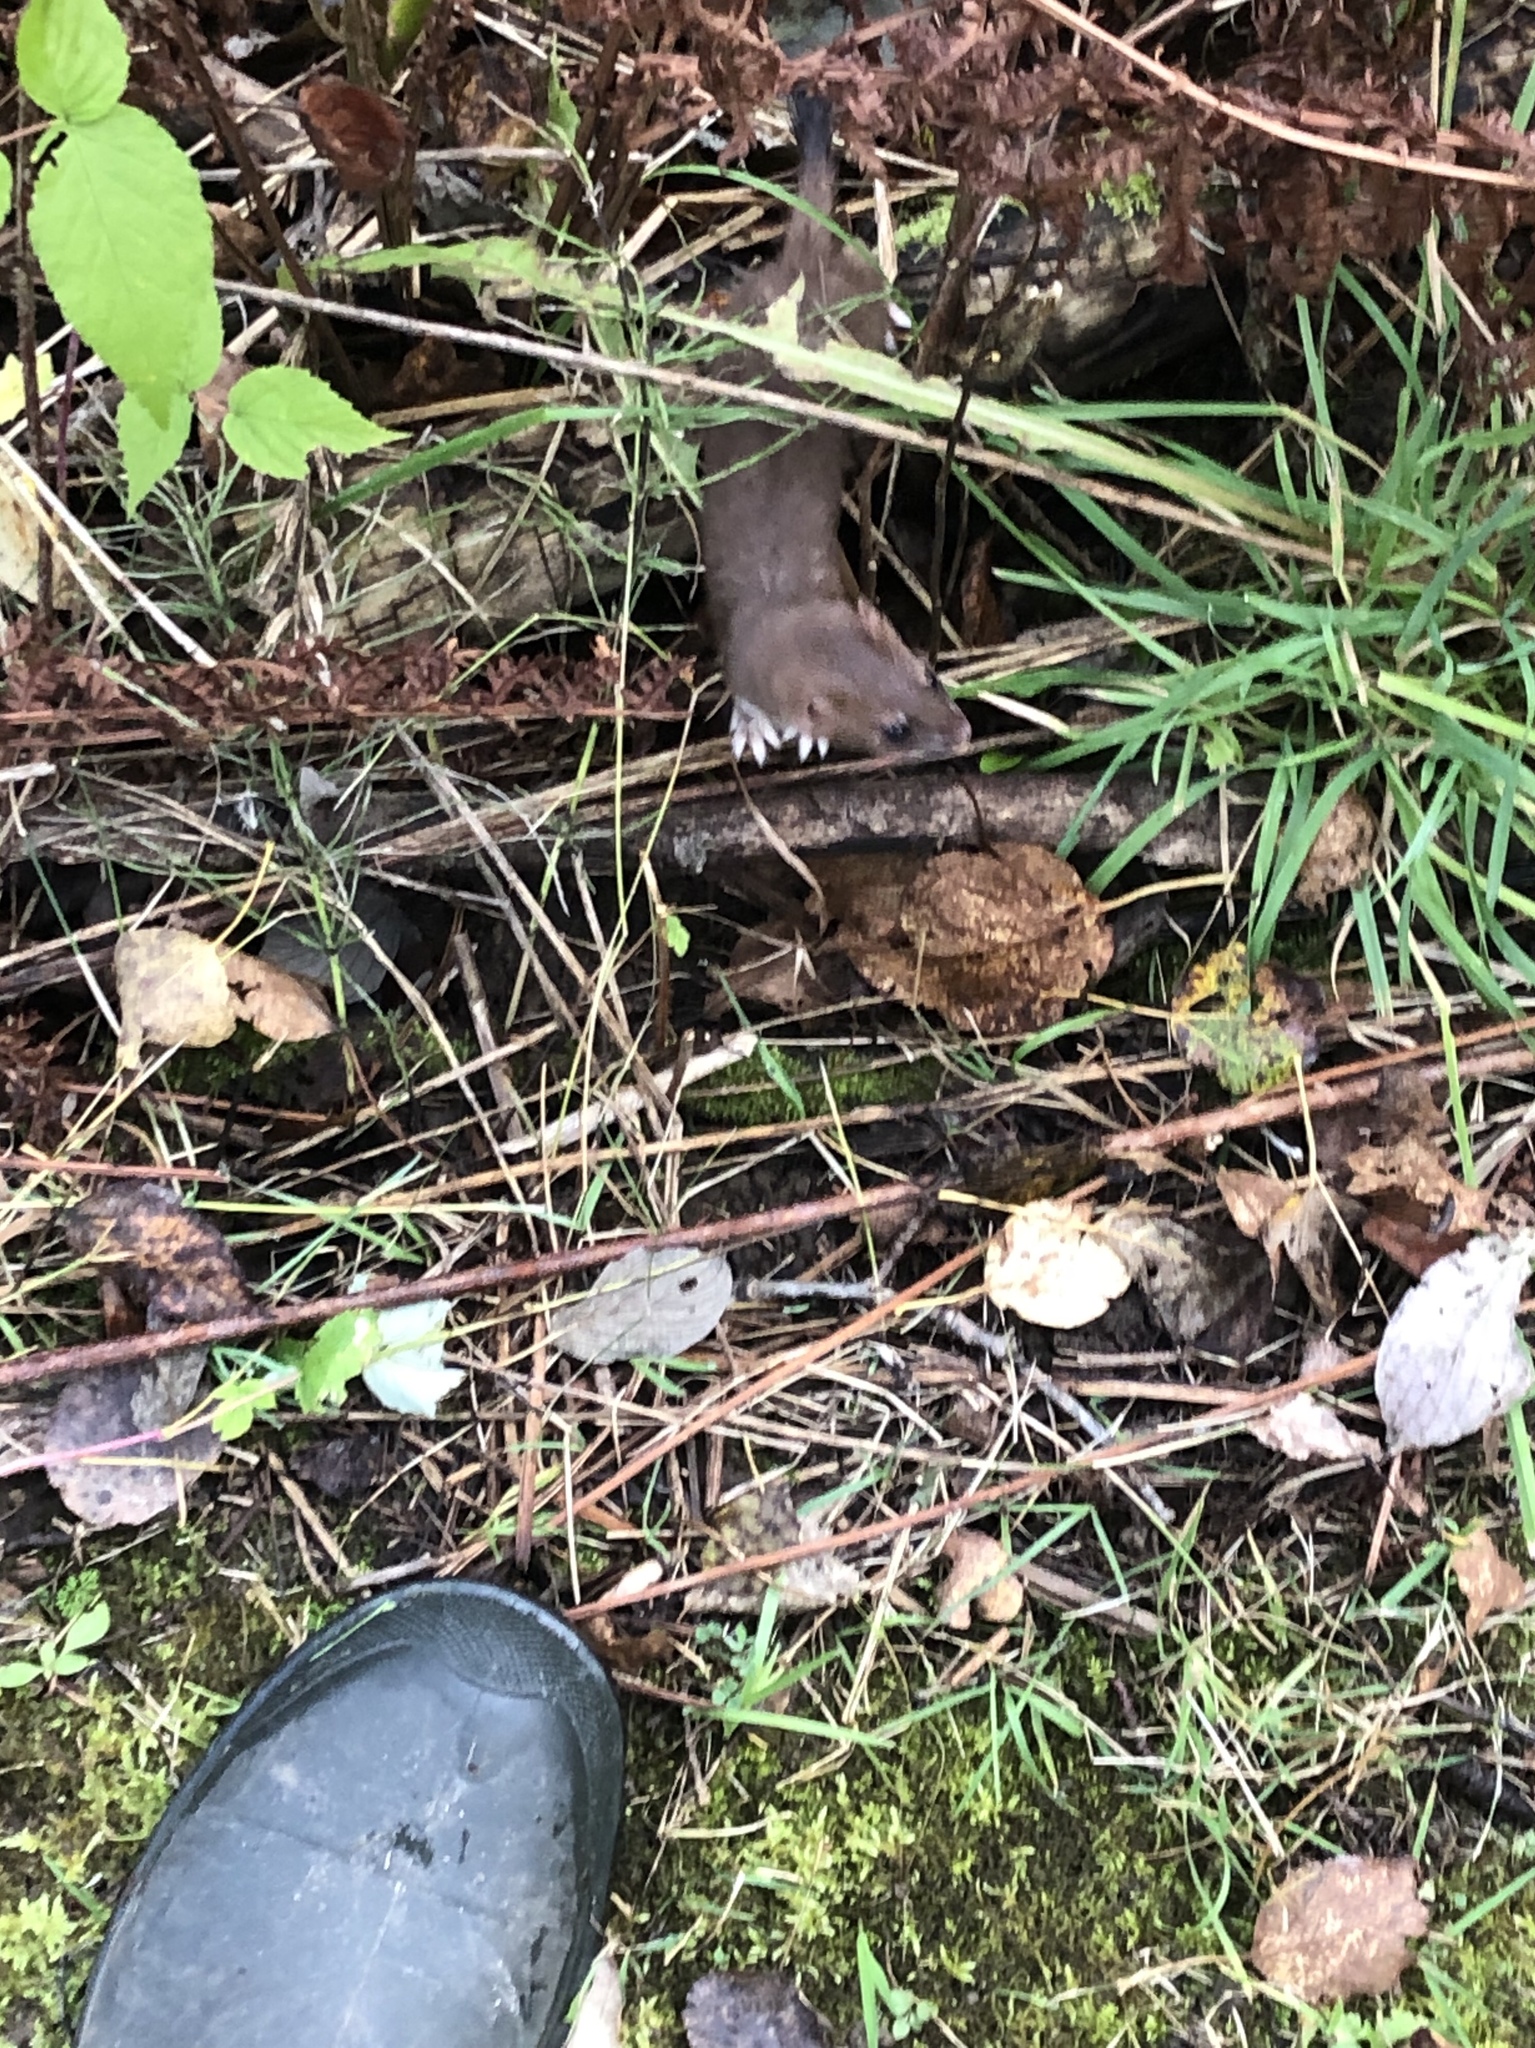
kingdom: Animalia
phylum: Chordata
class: Mammalia
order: Carnivora
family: Mustelidae
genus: Mustela
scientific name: Mustela erminea
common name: Stoat
